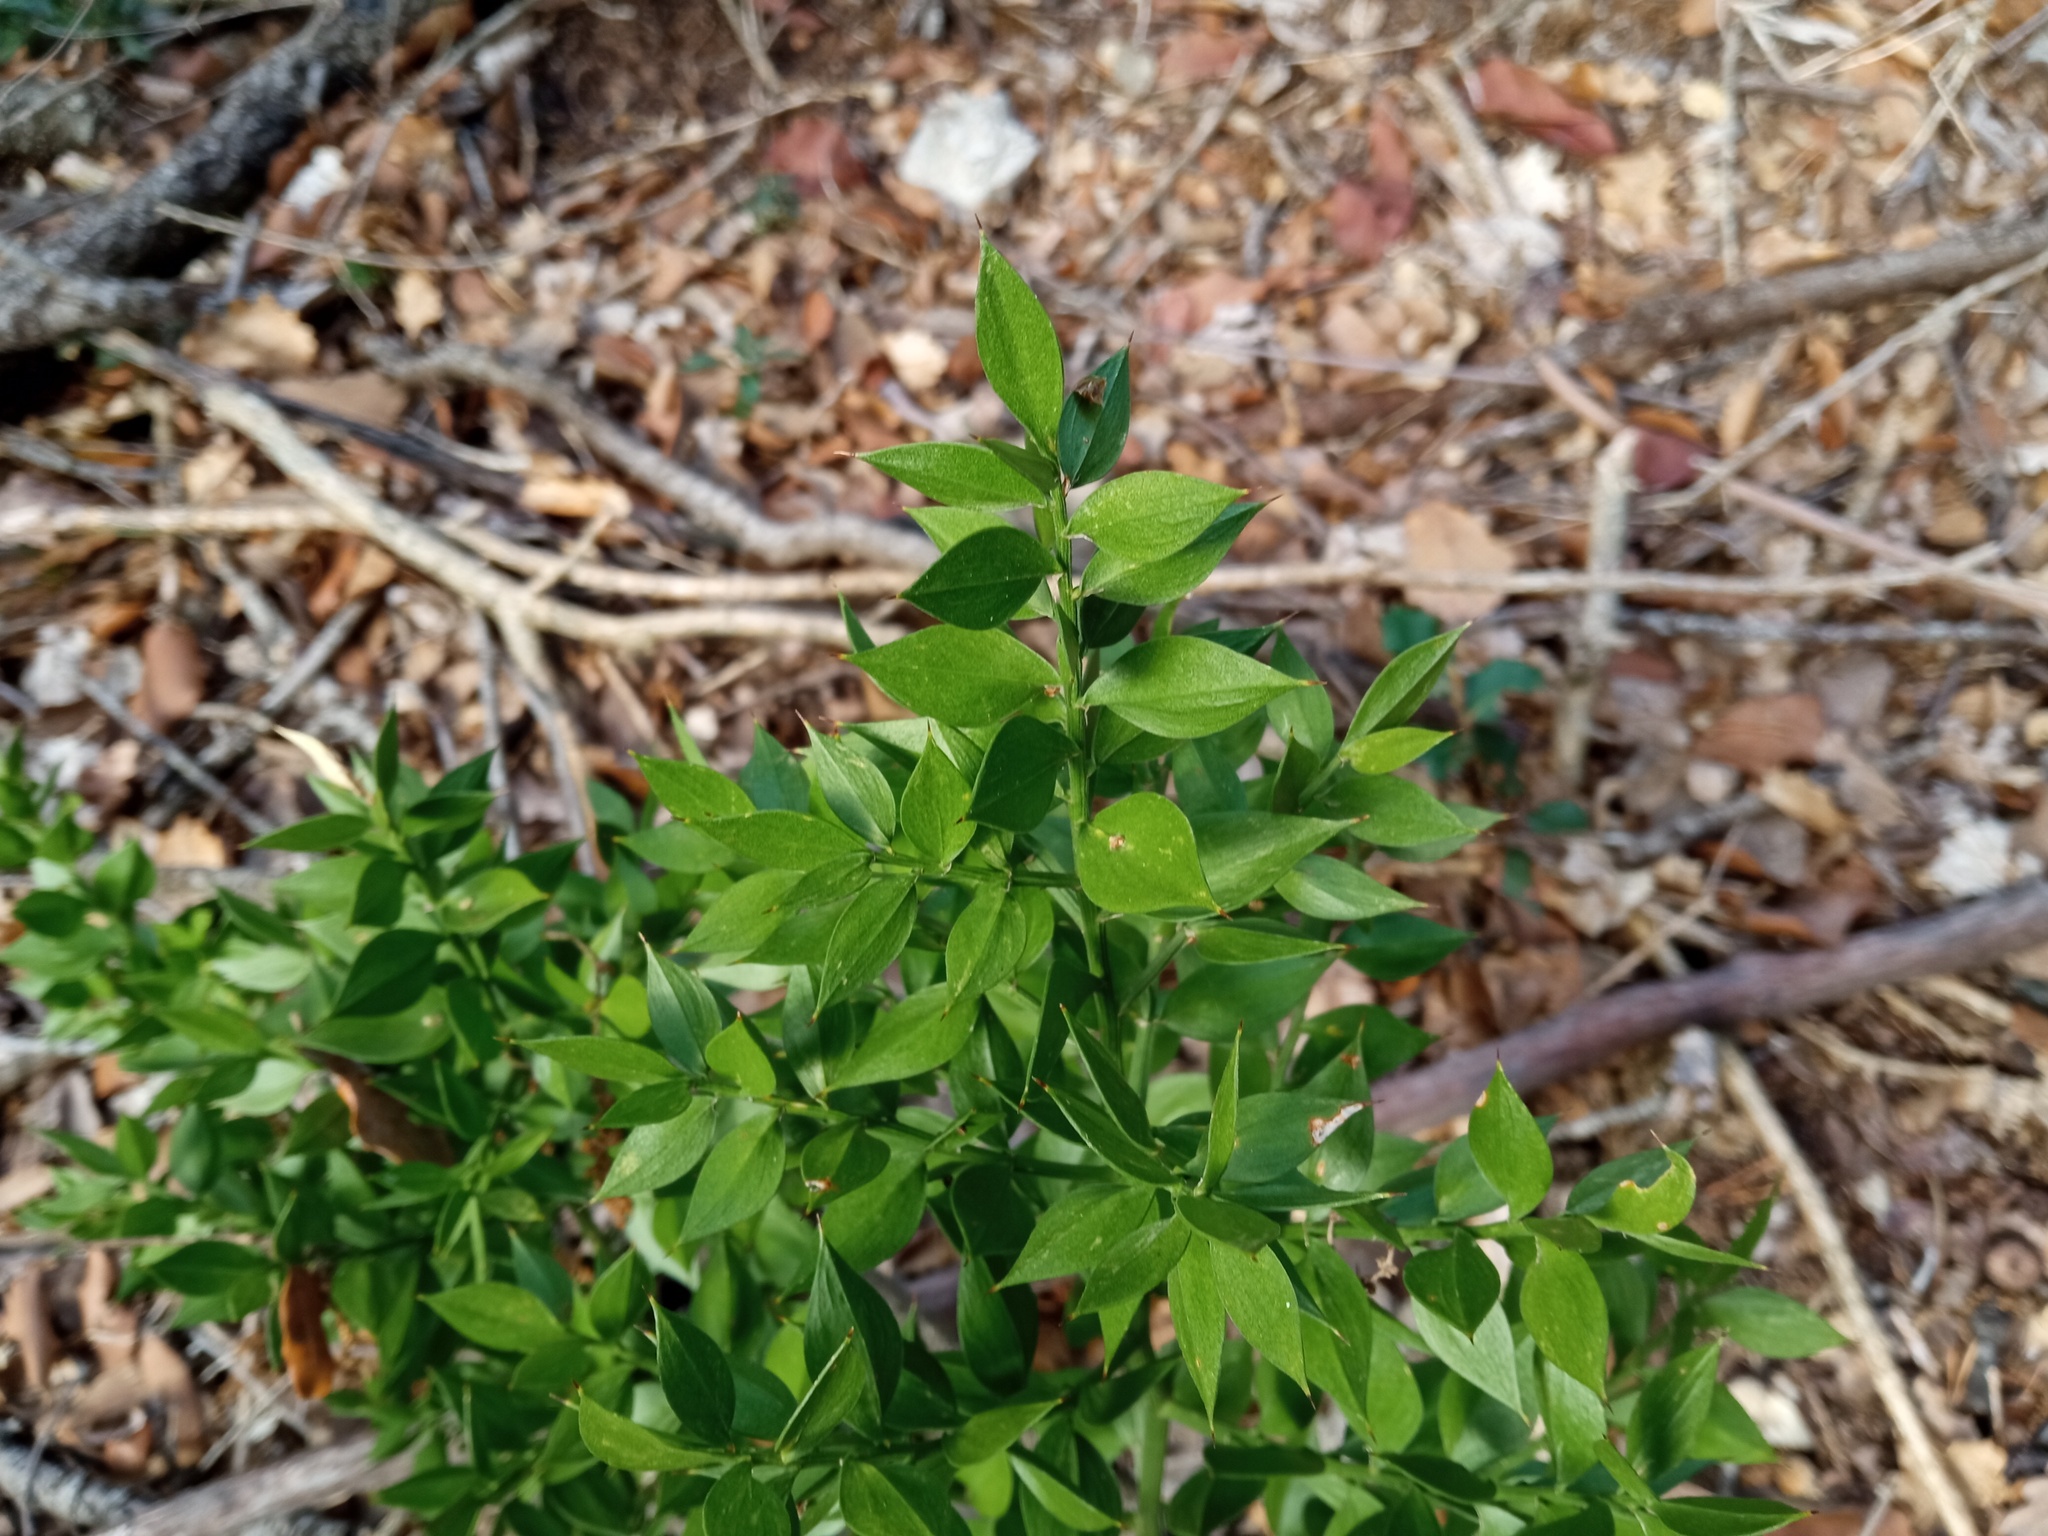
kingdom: Plantae
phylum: Tracheophyta
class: Liliopsida
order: Asparagales
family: Asparagaceae
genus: Ruscus
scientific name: Ruscus aculeatus
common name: Butcher's-broom
